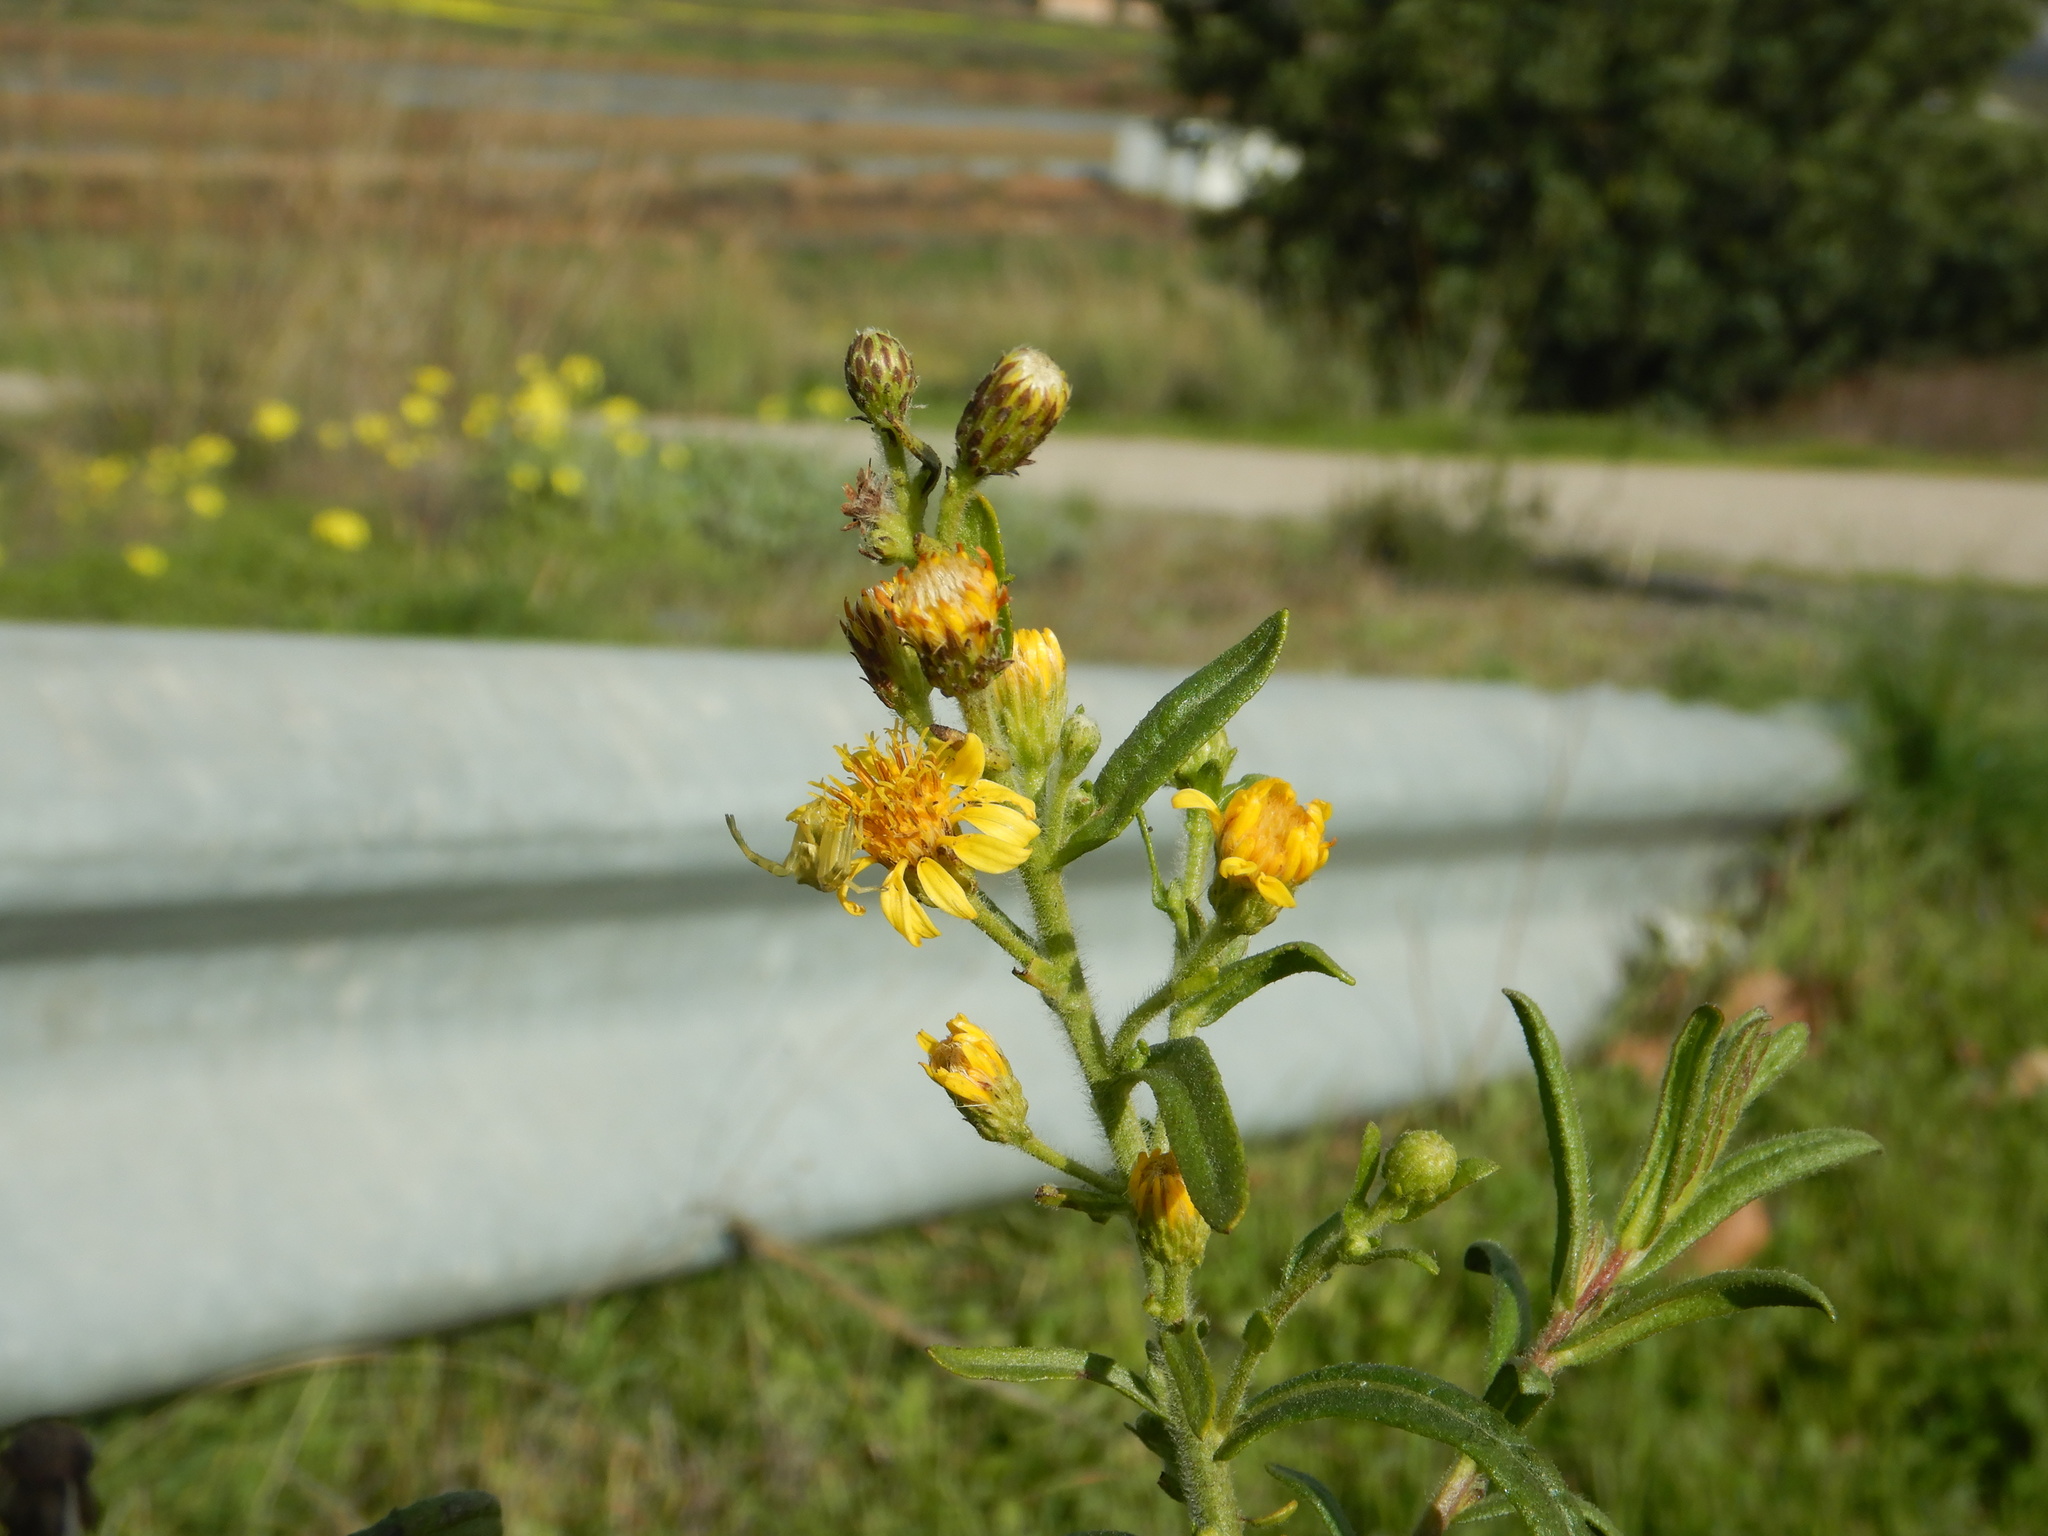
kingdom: Plantae
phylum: Tracheophyta
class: Magnoliopsida
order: Asterales
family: Asteraceae
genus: Dittrichia
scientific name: Dittrichia viscosa
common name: Woody fleabane
